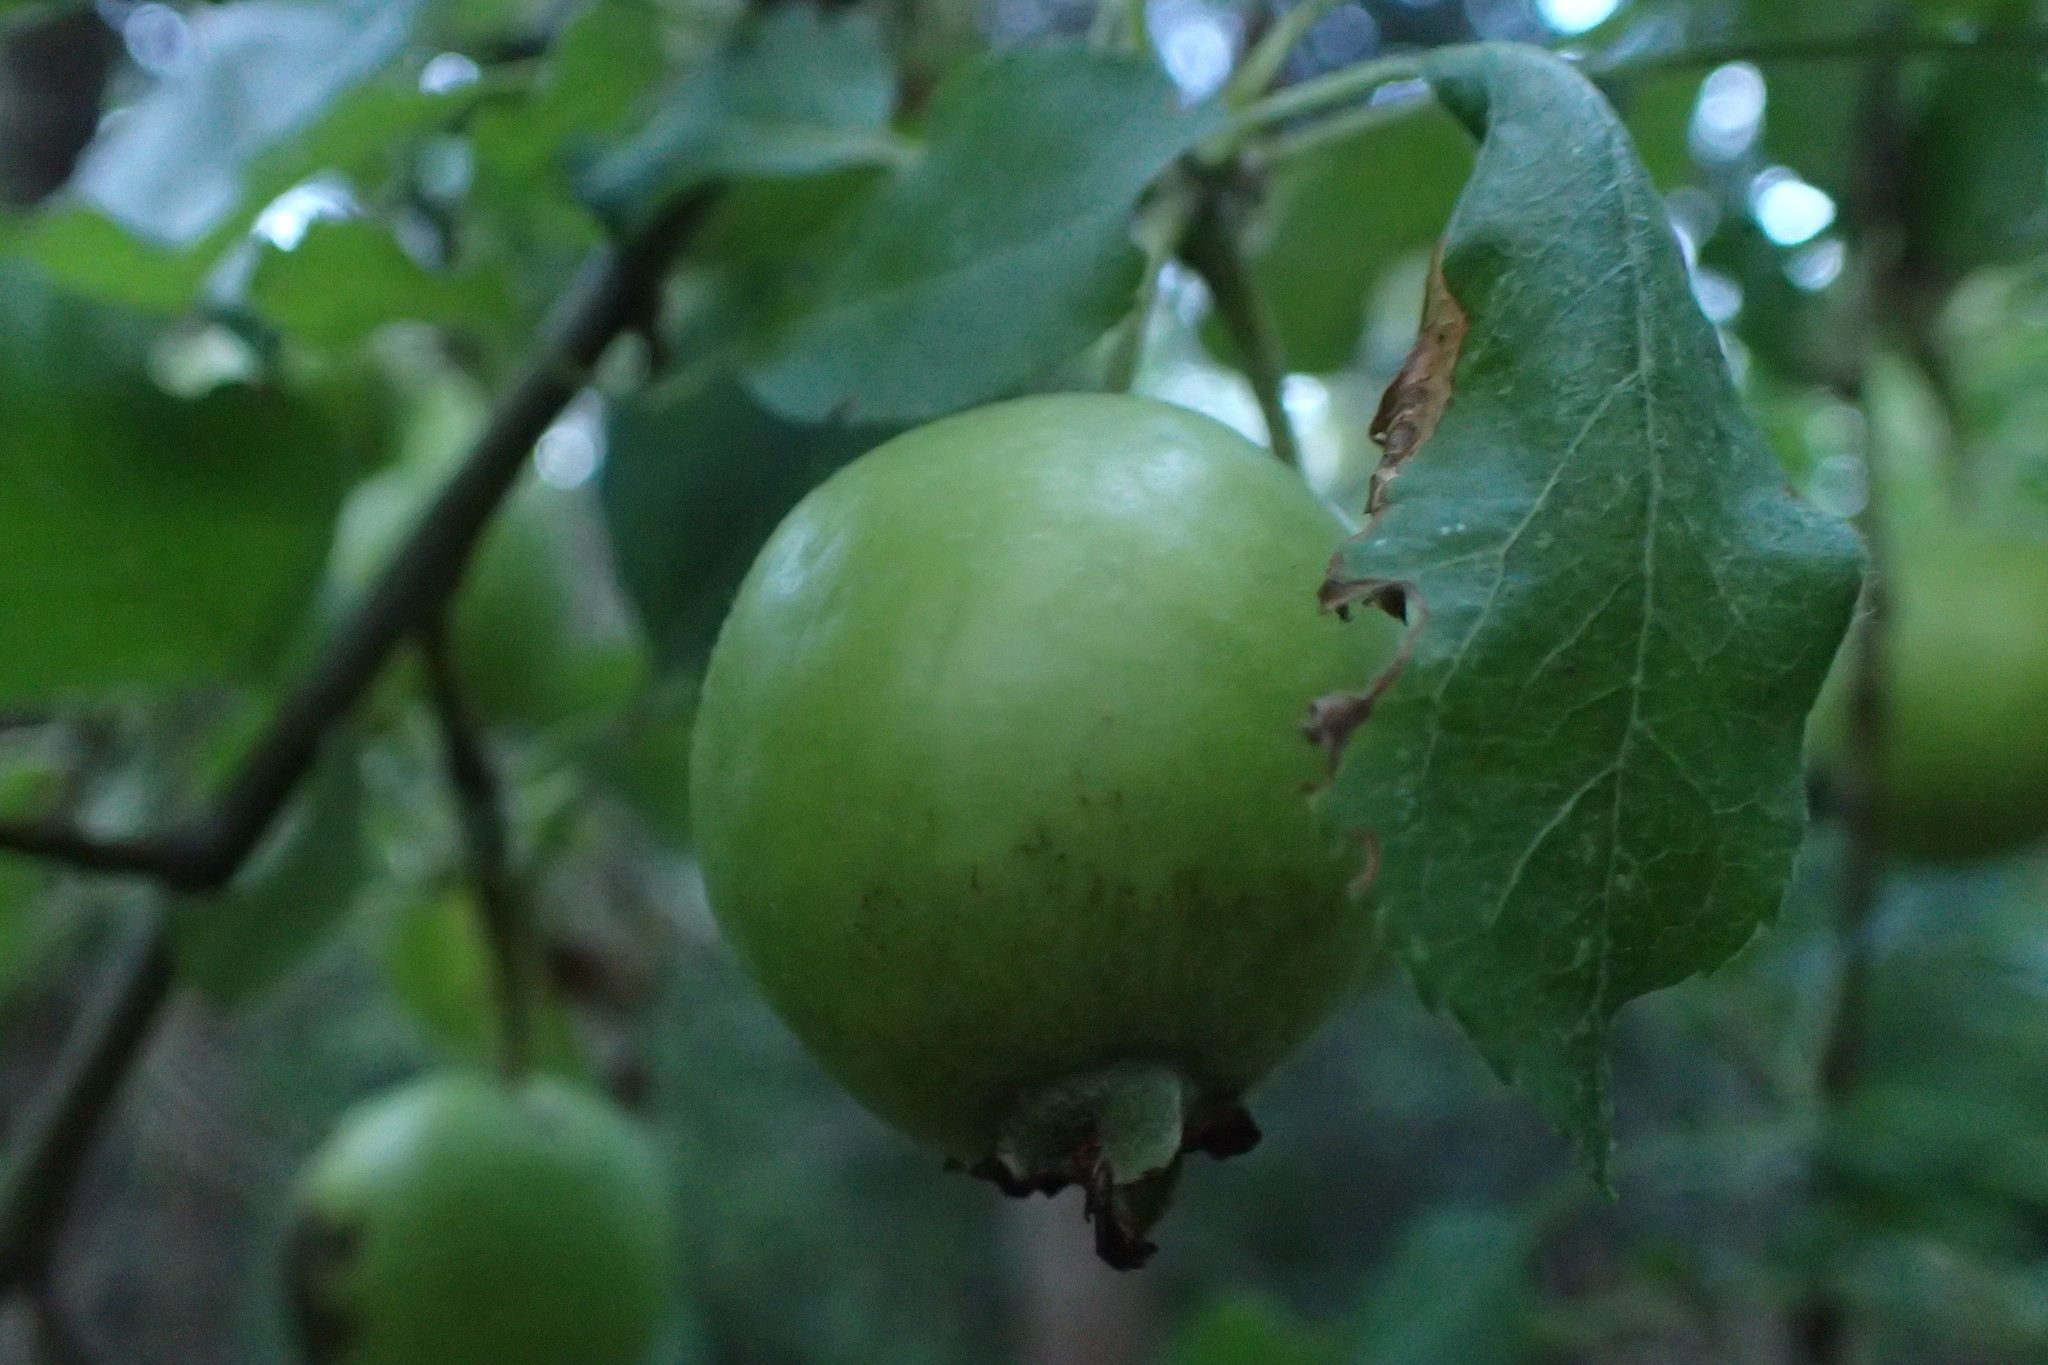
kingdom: Plantae
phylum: Tracheophyta
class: Magnoliopsida
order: Rosales
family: Rosaceae
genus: Malus
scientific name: Malus domestica
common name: Apple
